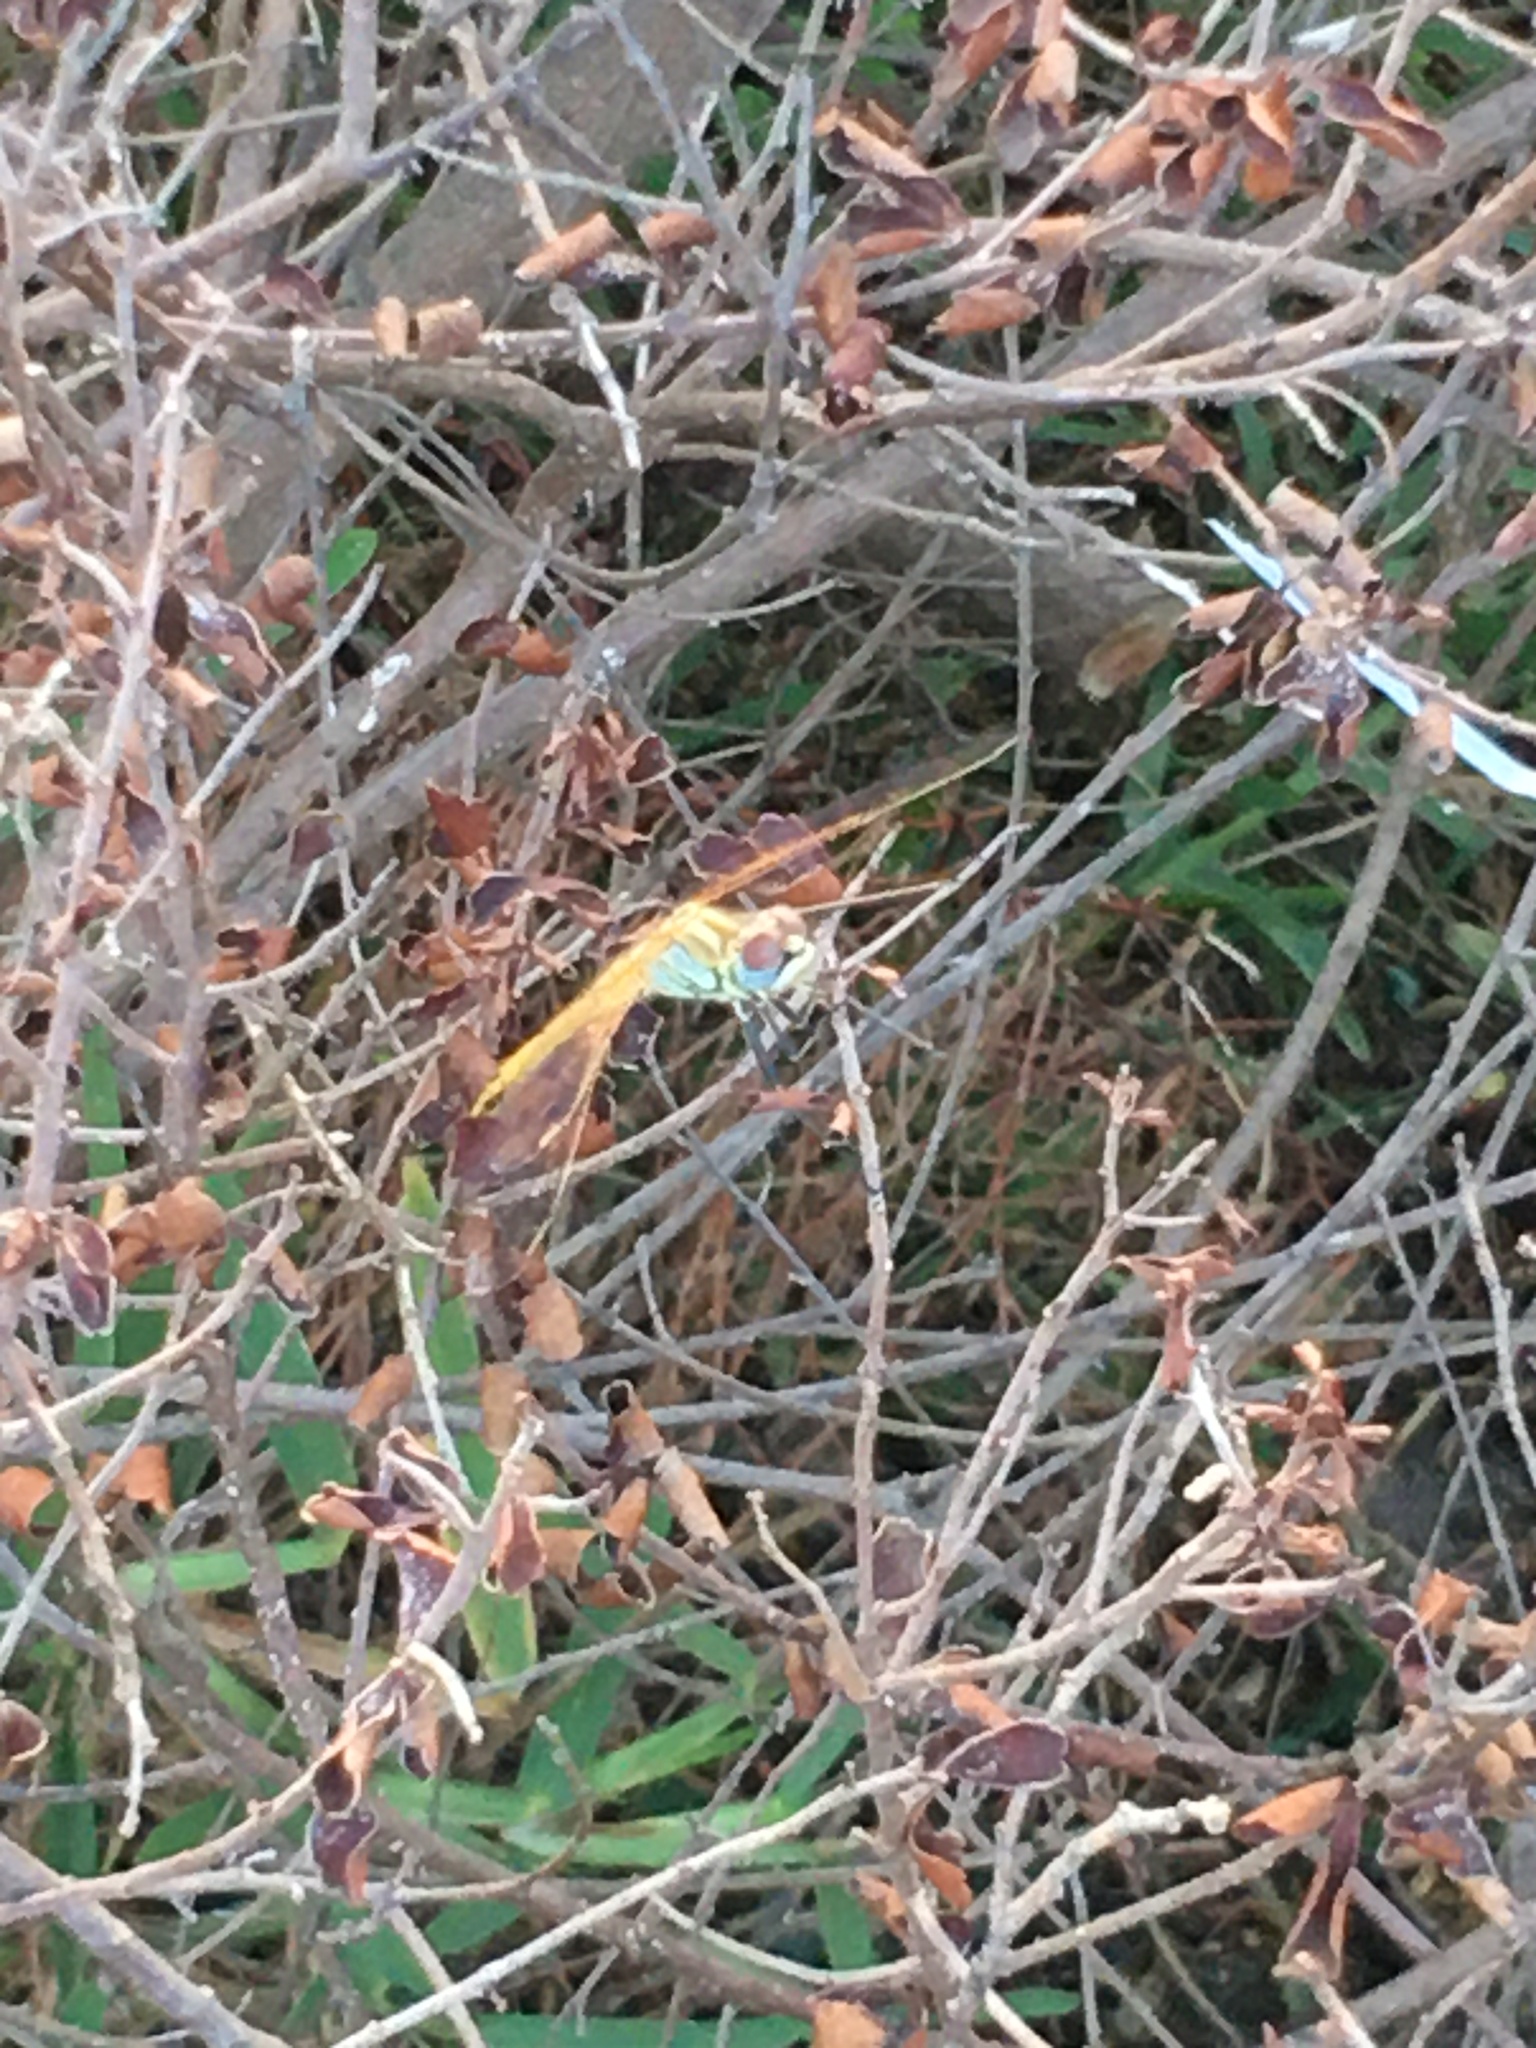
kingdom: Animalia
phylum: Arthropoda
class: Insecta
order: Odonata
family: Libellulidae
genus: Sympetrum
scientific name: Sympetrum fonscolombii
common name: Red-veined darter
